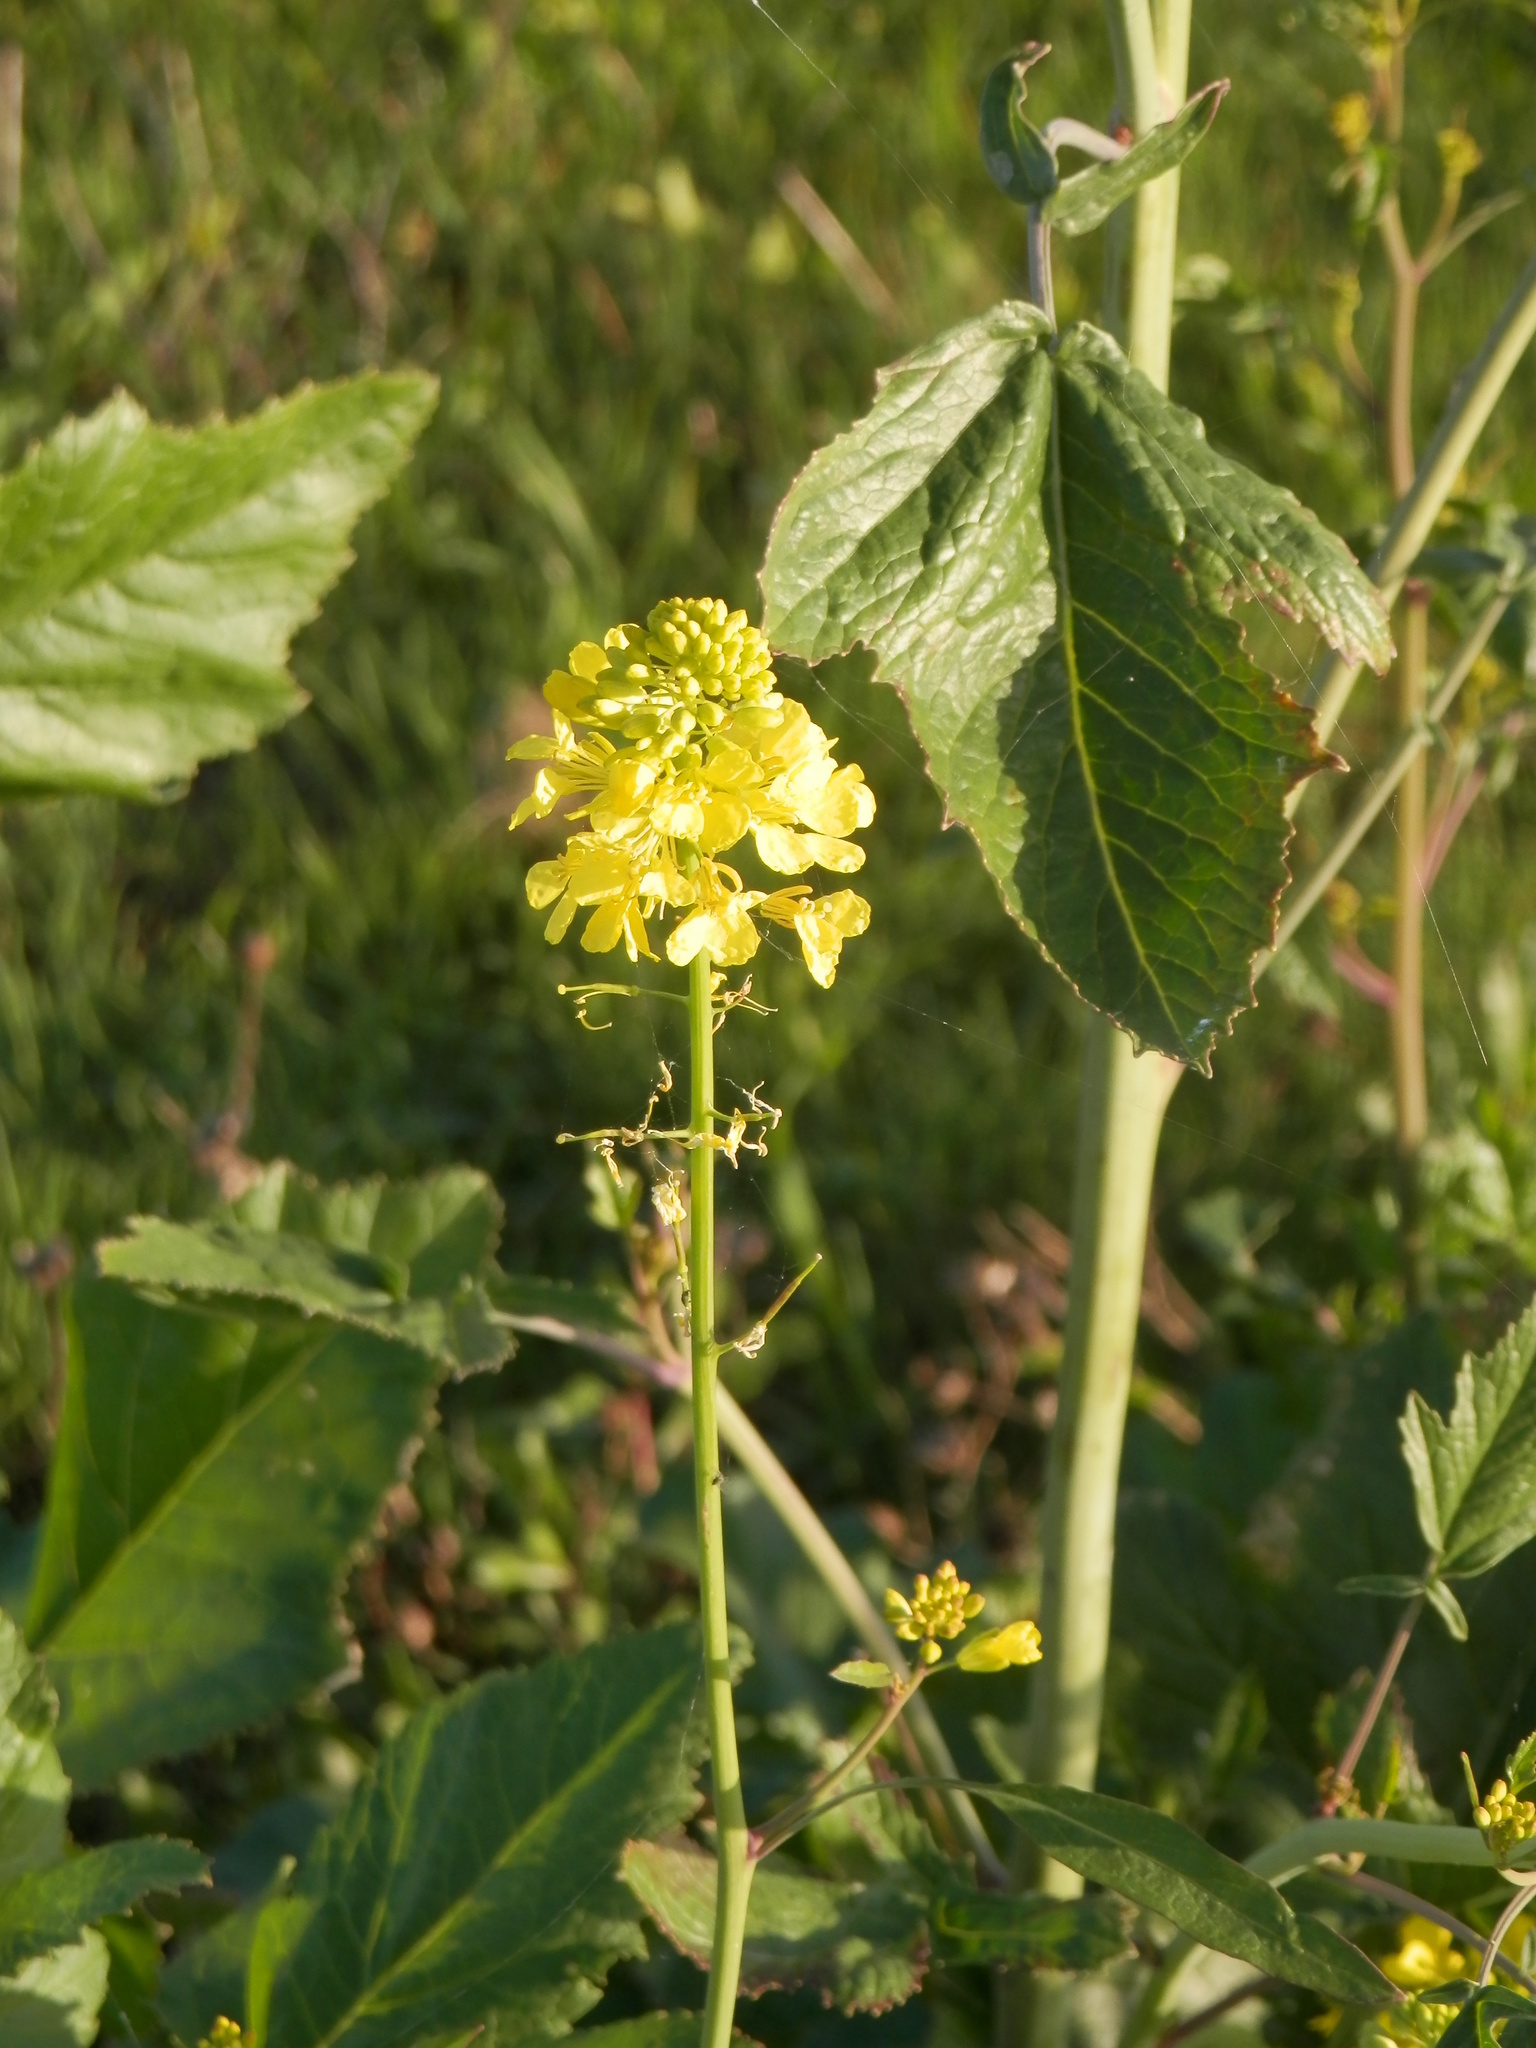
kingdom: Plantae
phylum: Tracheophyta
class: Magnoliopsida
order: Brassicales
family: Brassicaceae
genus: Erysimum
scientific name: Erysimum capitatum
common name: Western wallflower
